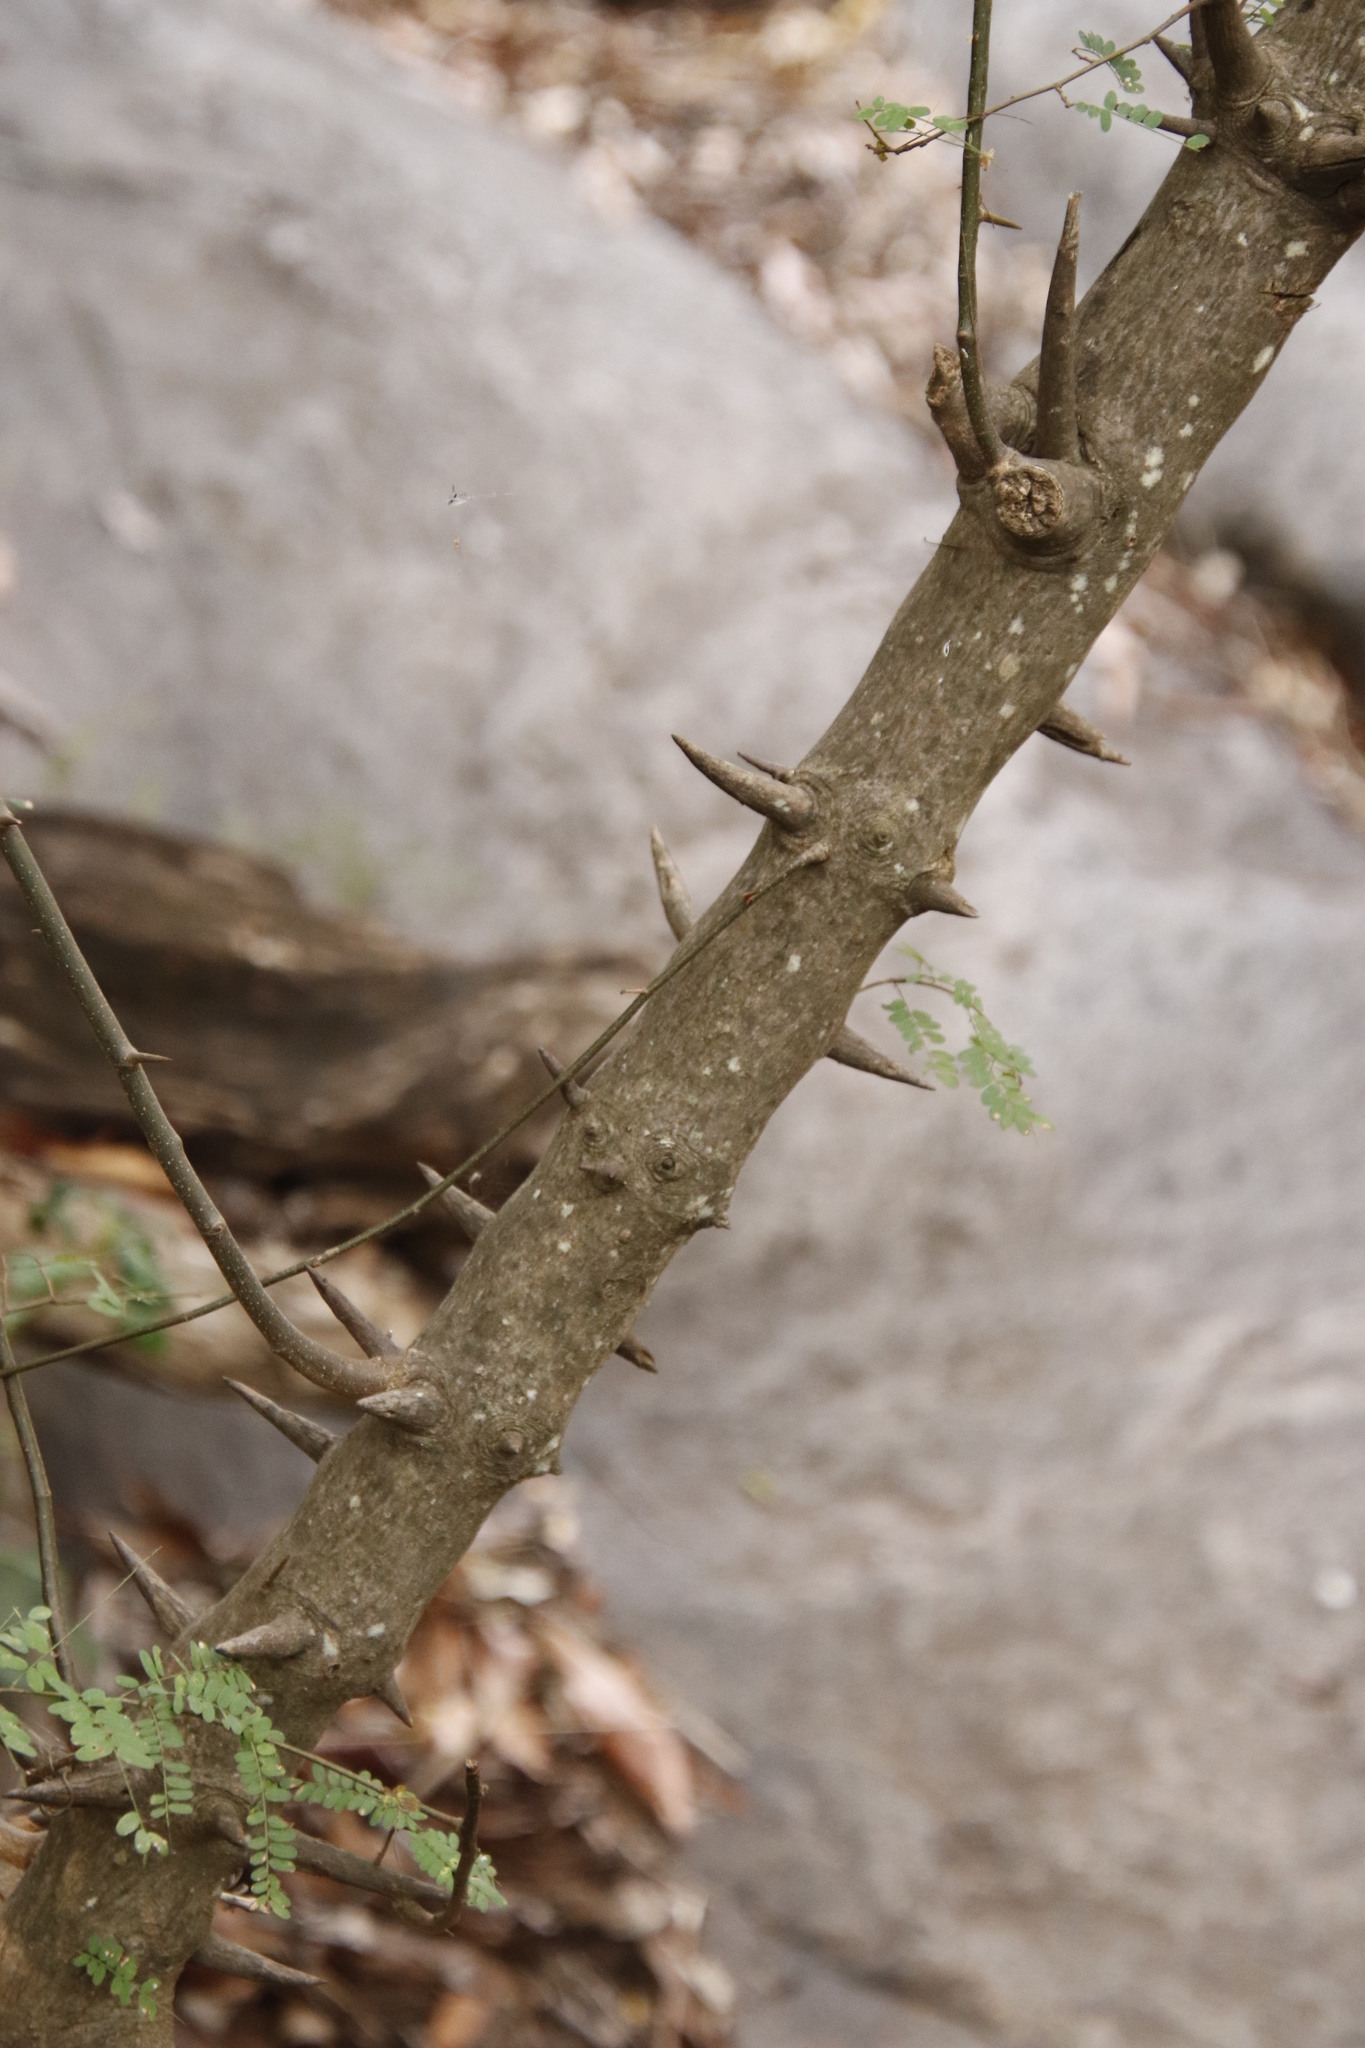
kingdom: Plantae
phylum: Tracheophyta
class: Magnoliopsida
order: Fabales
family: Fabaceae
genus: Dalbergia
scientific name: Dalbergia armata
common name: Hluhluwe climber
